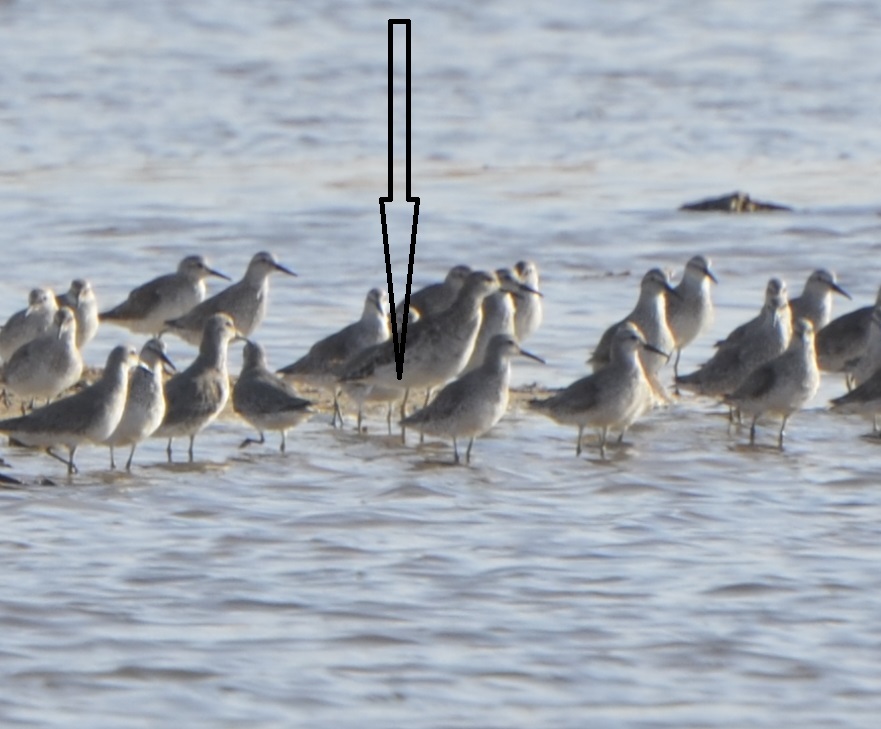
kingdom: Animalia
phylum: Chordata
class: Aves
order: Charadriiformes
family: Scolopacidae
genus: Calidris
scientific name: Calidris pugnax
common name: Ruff
